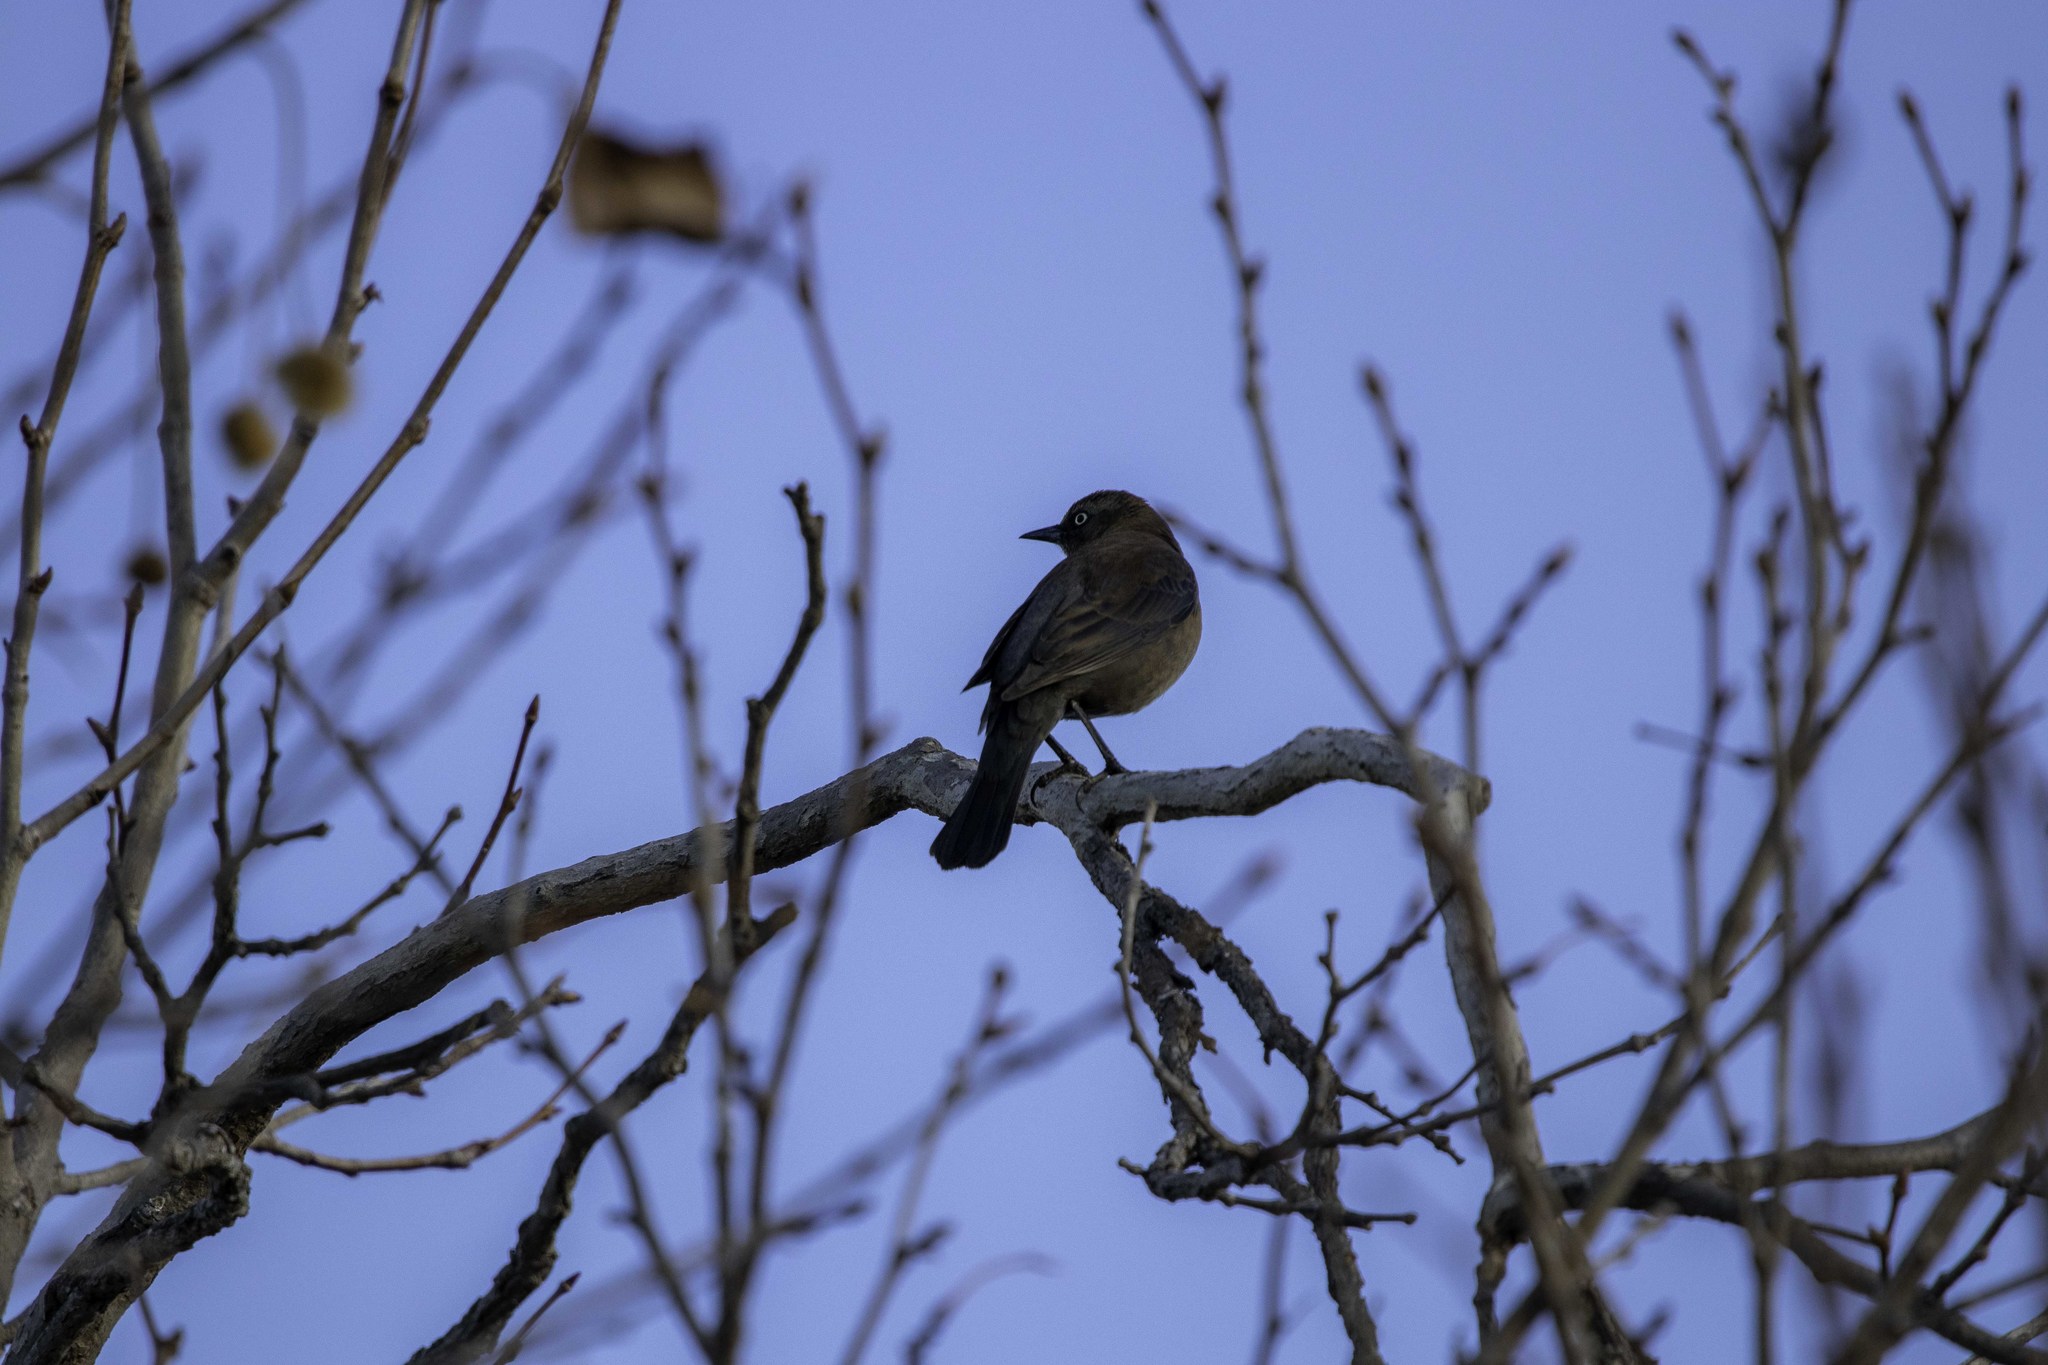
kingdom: Animalia
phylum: Chordata
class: Aves
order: Passeriformes
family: Icteridae
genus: Euphagus
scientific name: Euphagus carolinus
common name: Rusty blackbird
